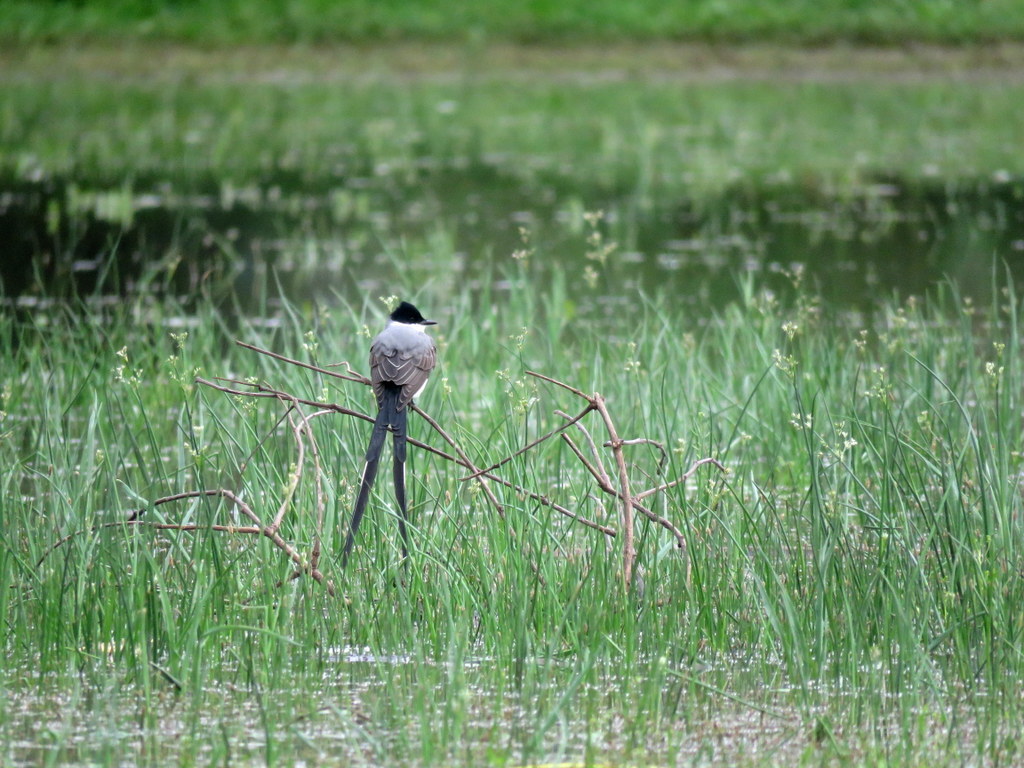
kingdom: Animalia
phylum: Chordata
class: Aves
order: Passeriformes
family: Tyrannidae
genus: Tyrannus
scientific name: Tyrannus savana
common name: Fork-tailed flycatcher
